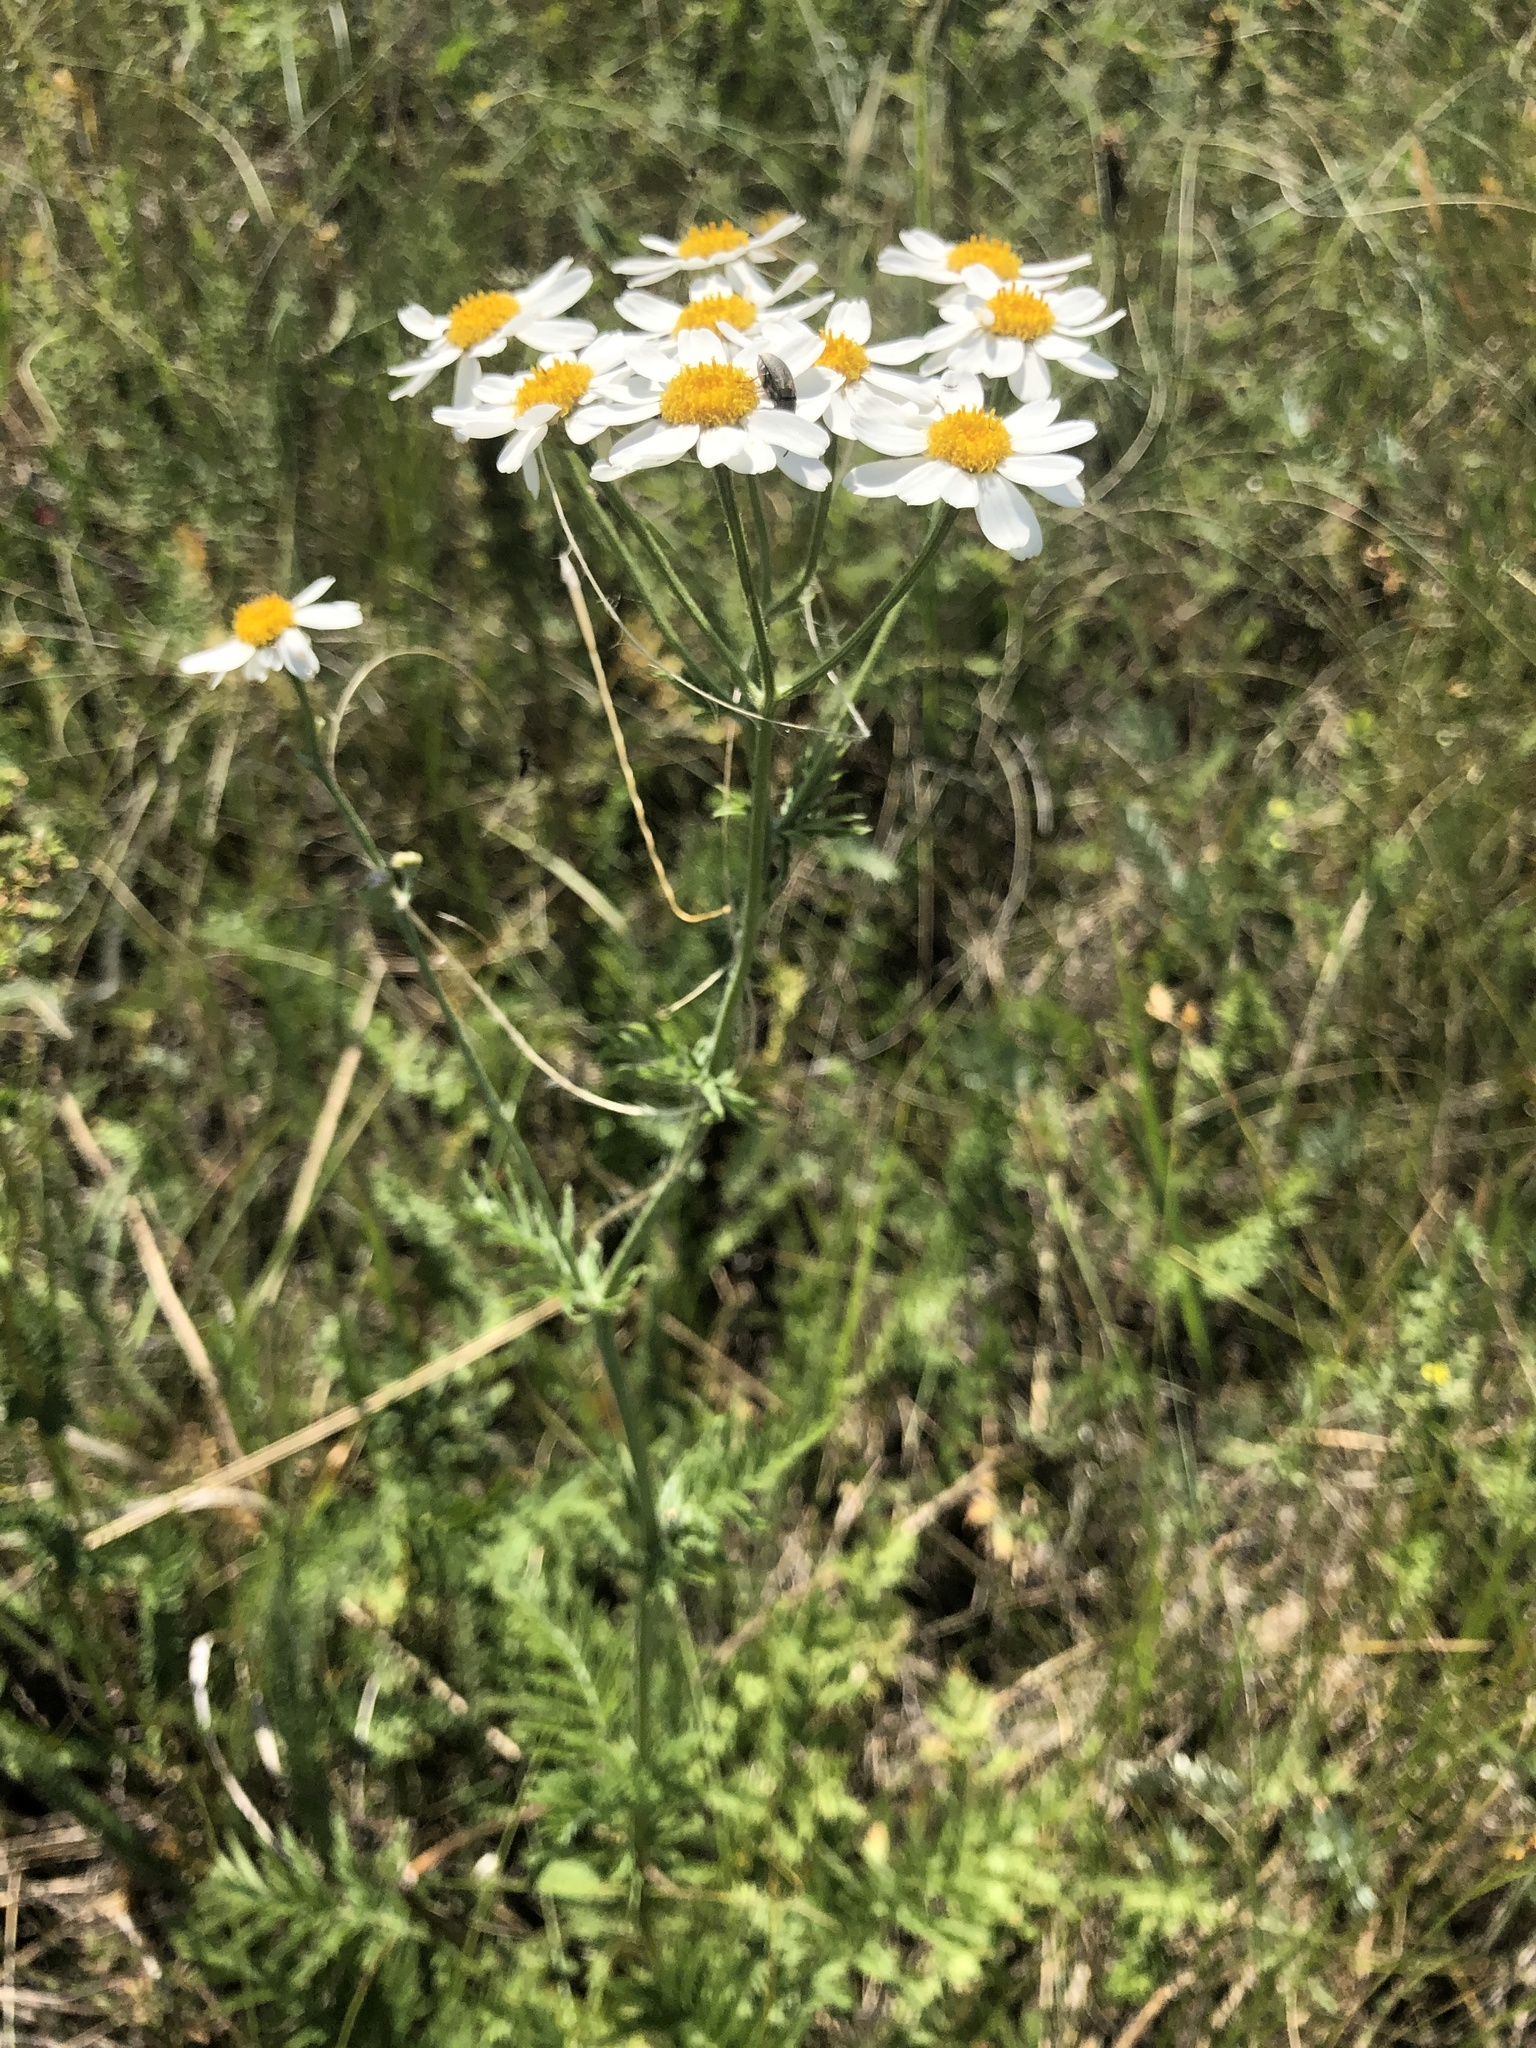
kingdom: Plantae
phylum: Tracheophyta
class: Magnoliopsida
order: Asterales
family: Asteraceae
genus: Tanacetum
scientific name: Tanacetum corymbosum
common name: Scentless feverfew
